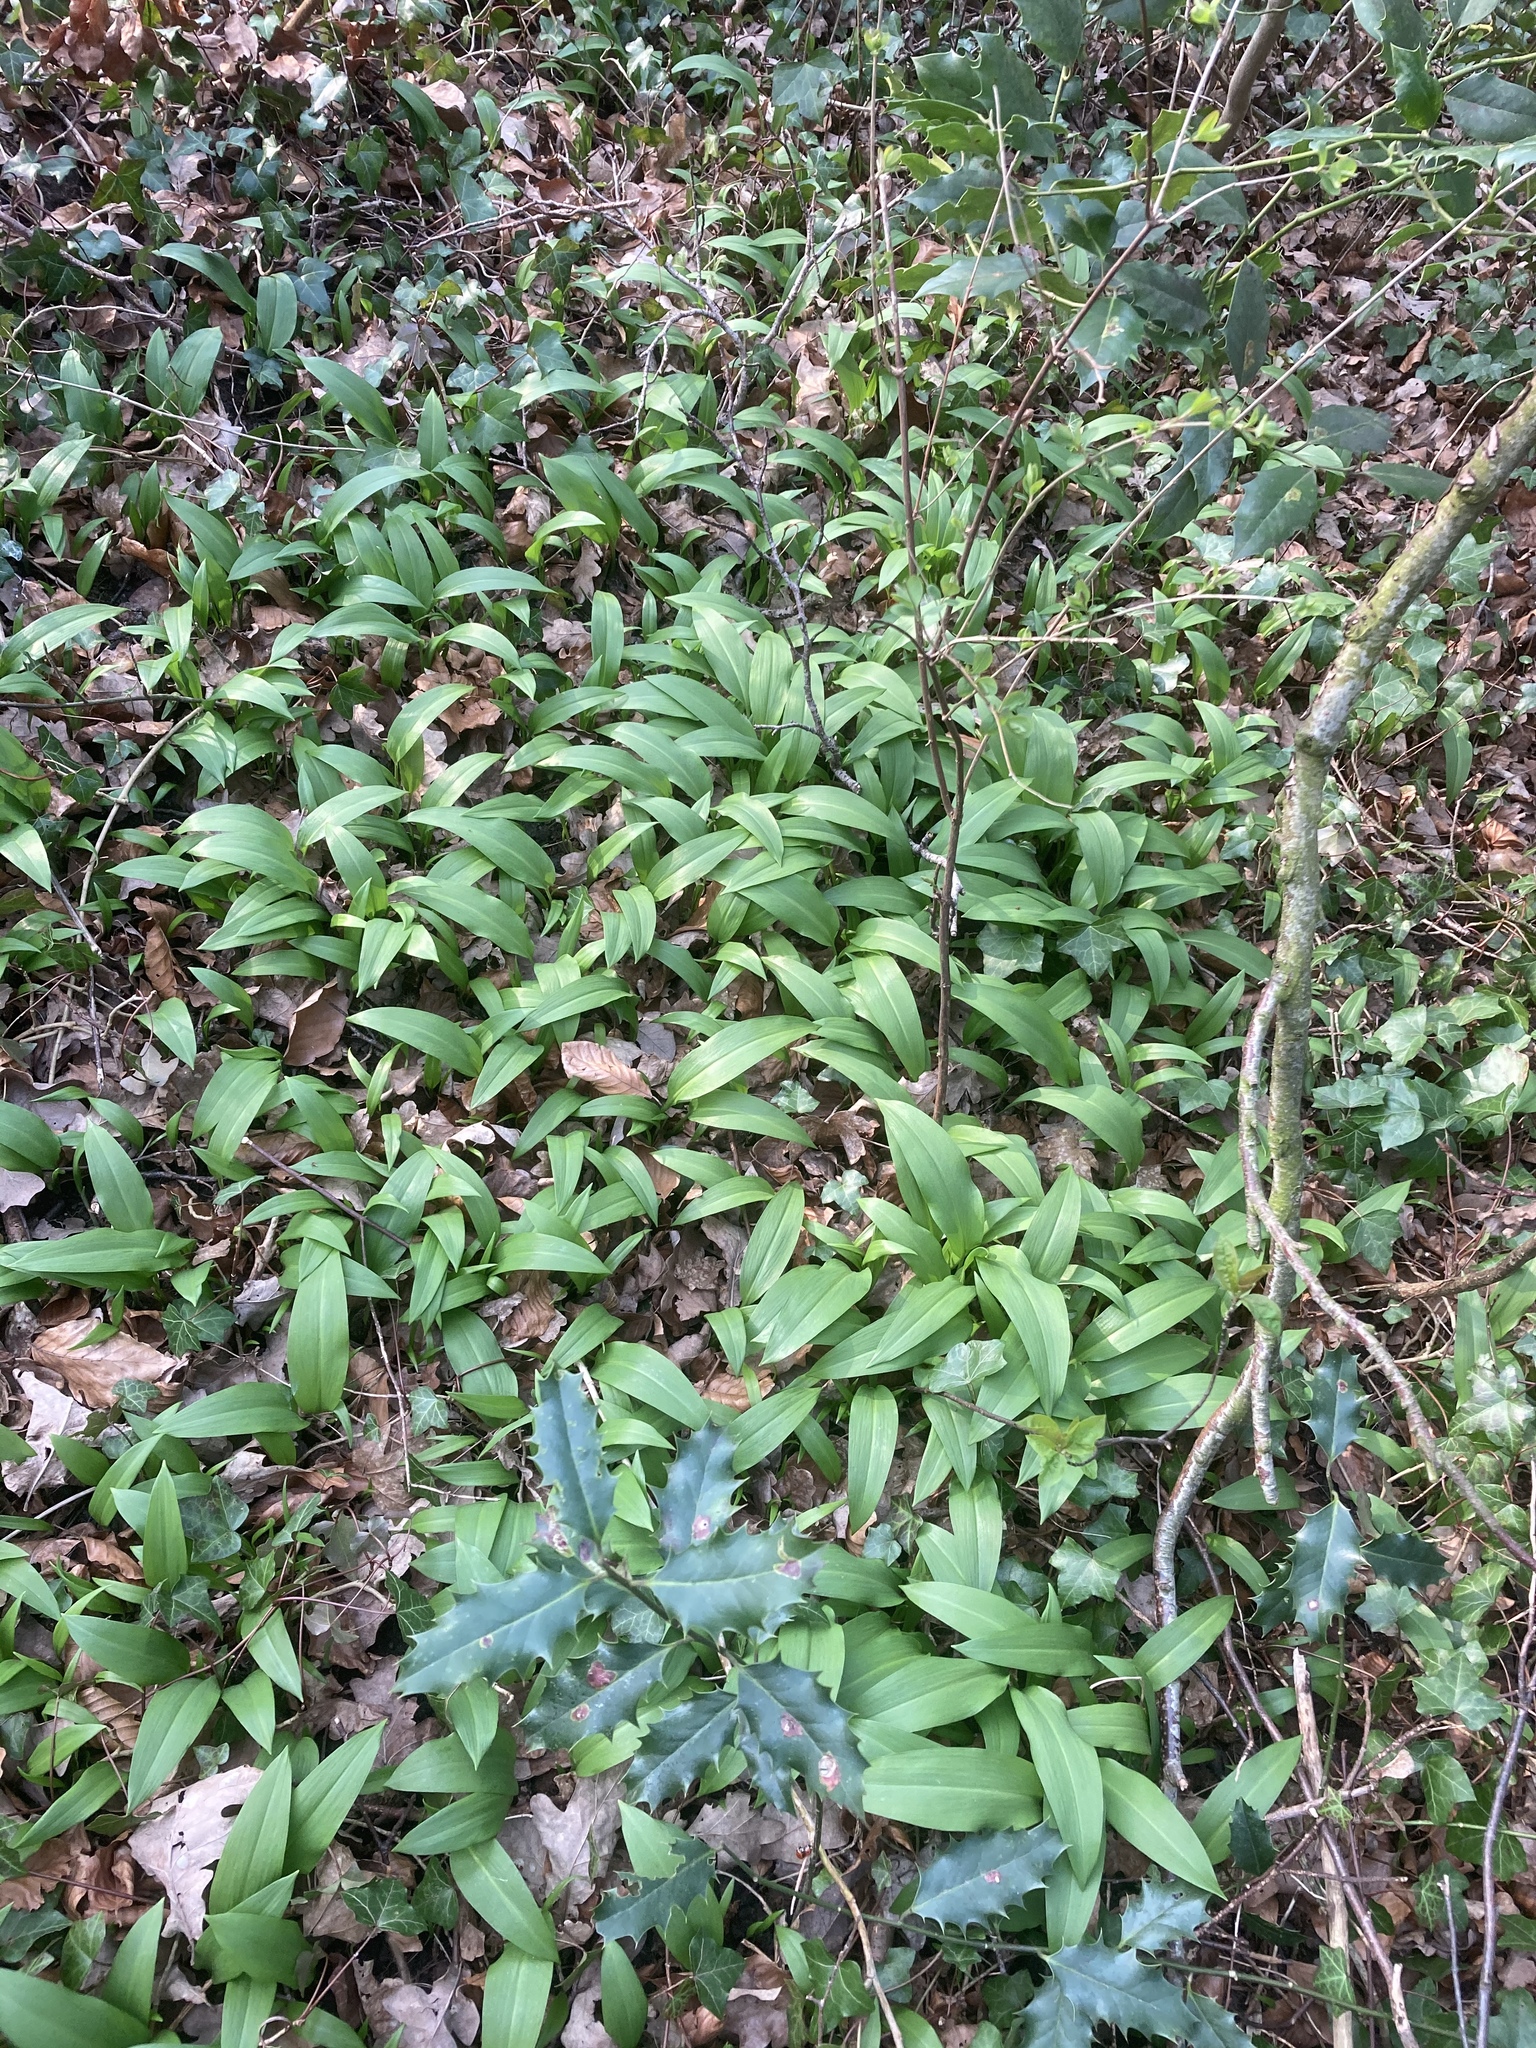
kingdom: Plantae
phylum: Tracheophyta
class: Liliopsida
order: Asparagales
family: Amaryllidaceae
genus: Allium
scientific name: Allium ursinum
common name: Ramsons
